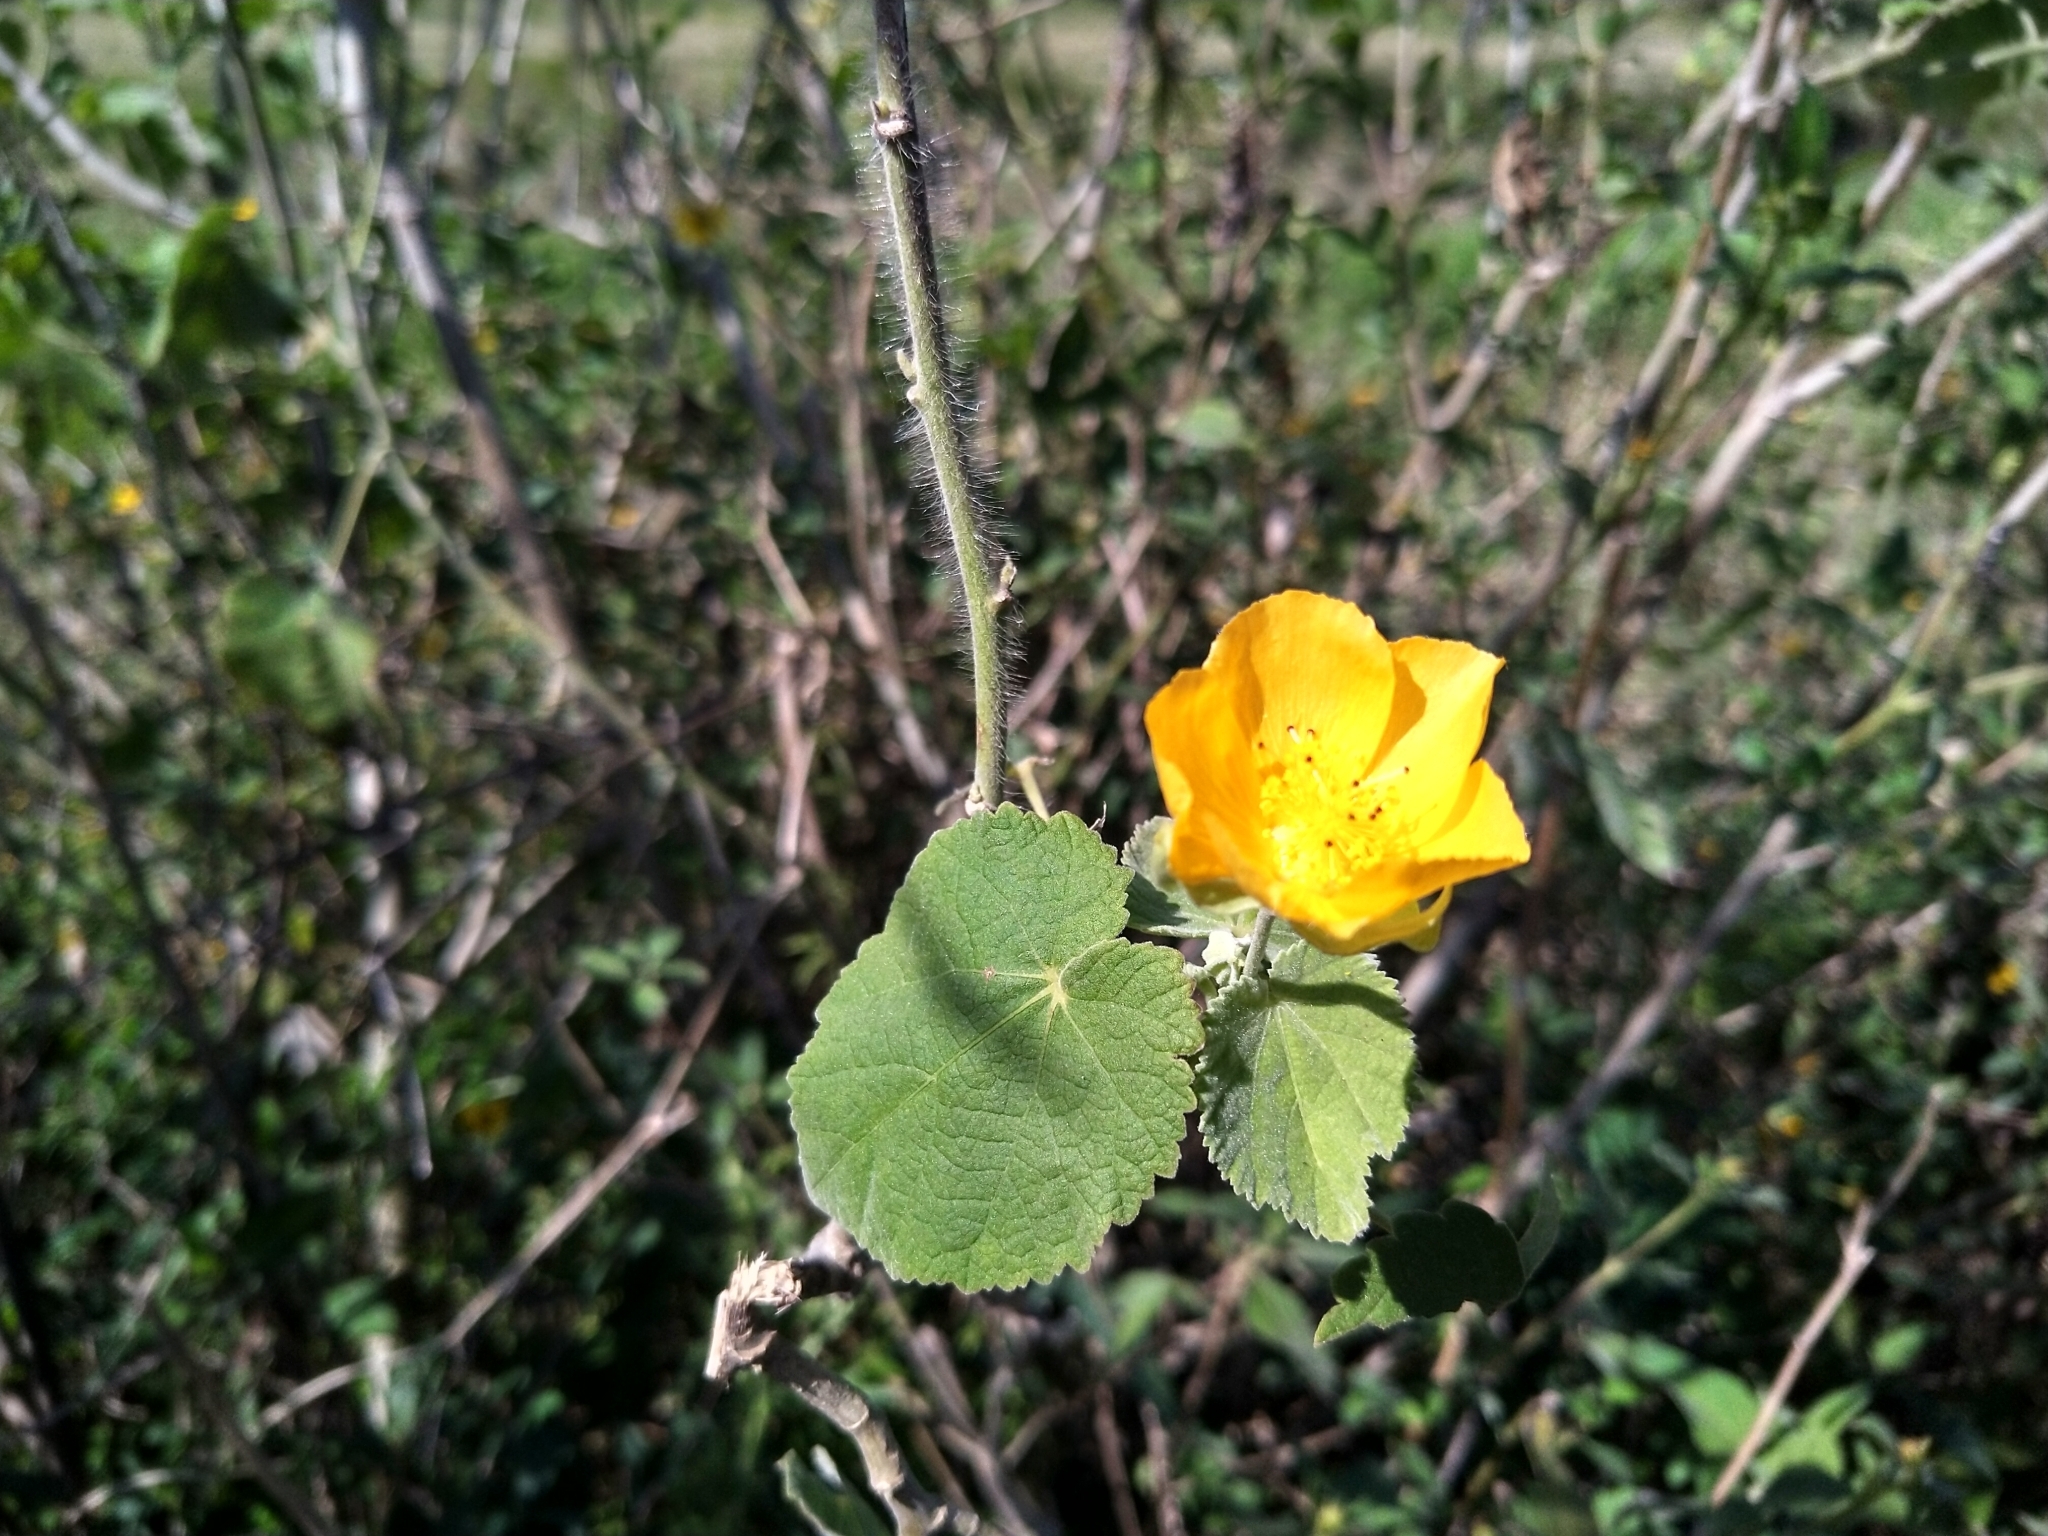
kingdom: Plantae
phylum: Tracheophyta
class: Magnoliopsida
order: Malvales
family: Malvaceae
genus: Abutilon
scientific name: Abutilon grandifolium
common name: Hairy abutilon
